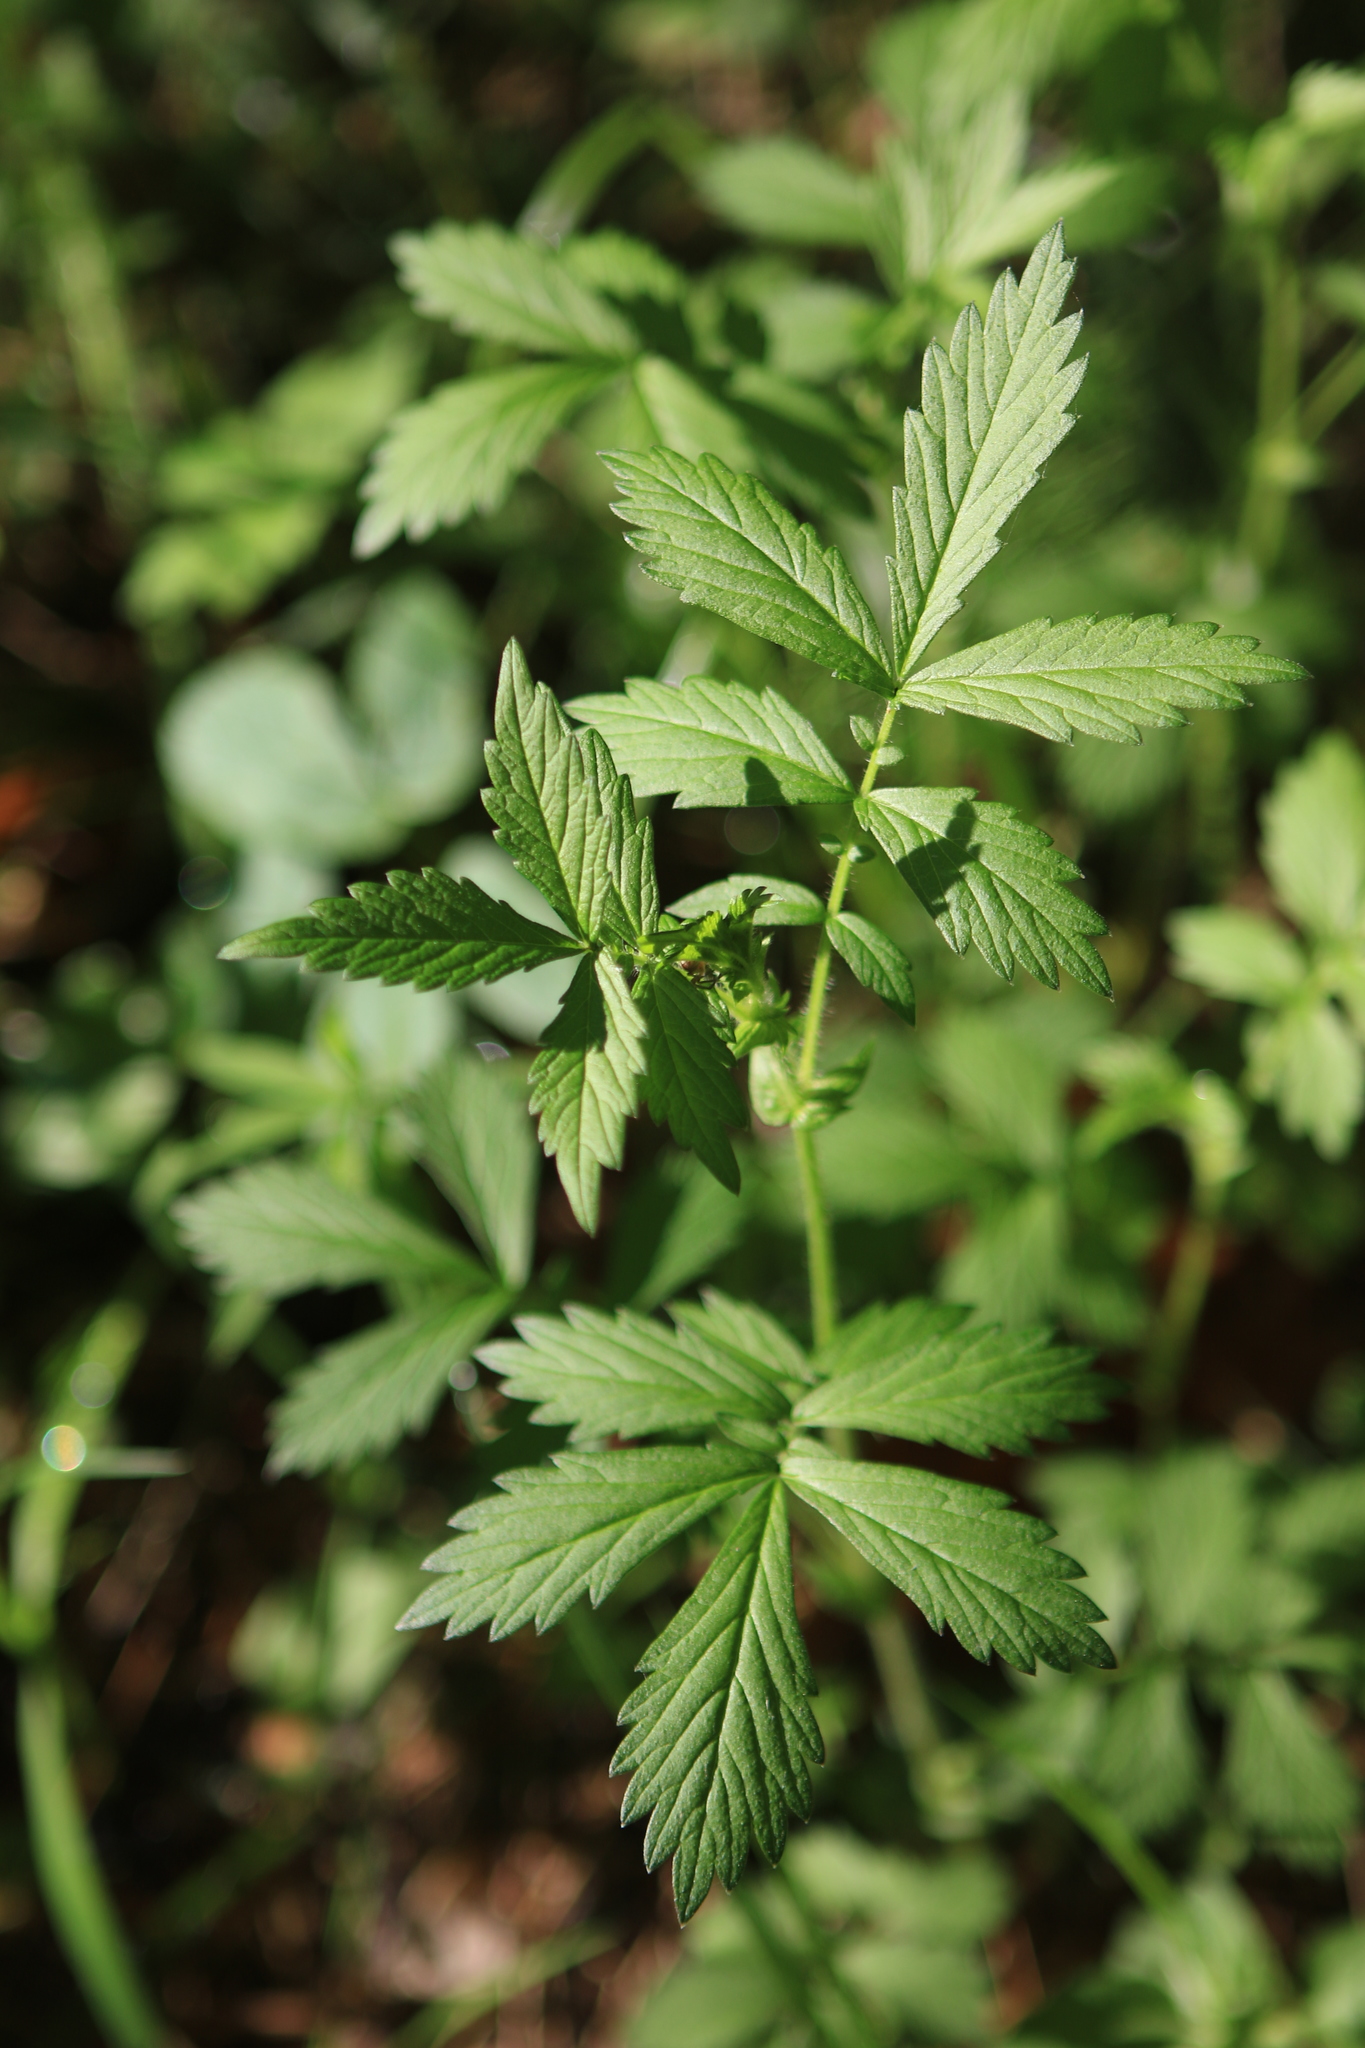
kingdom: Plantae
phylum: Tracheophyta
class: Magnoliopsida
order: Rosales
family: Rosaceae
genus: Agrimonia
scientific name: Agrimonia pilosa
